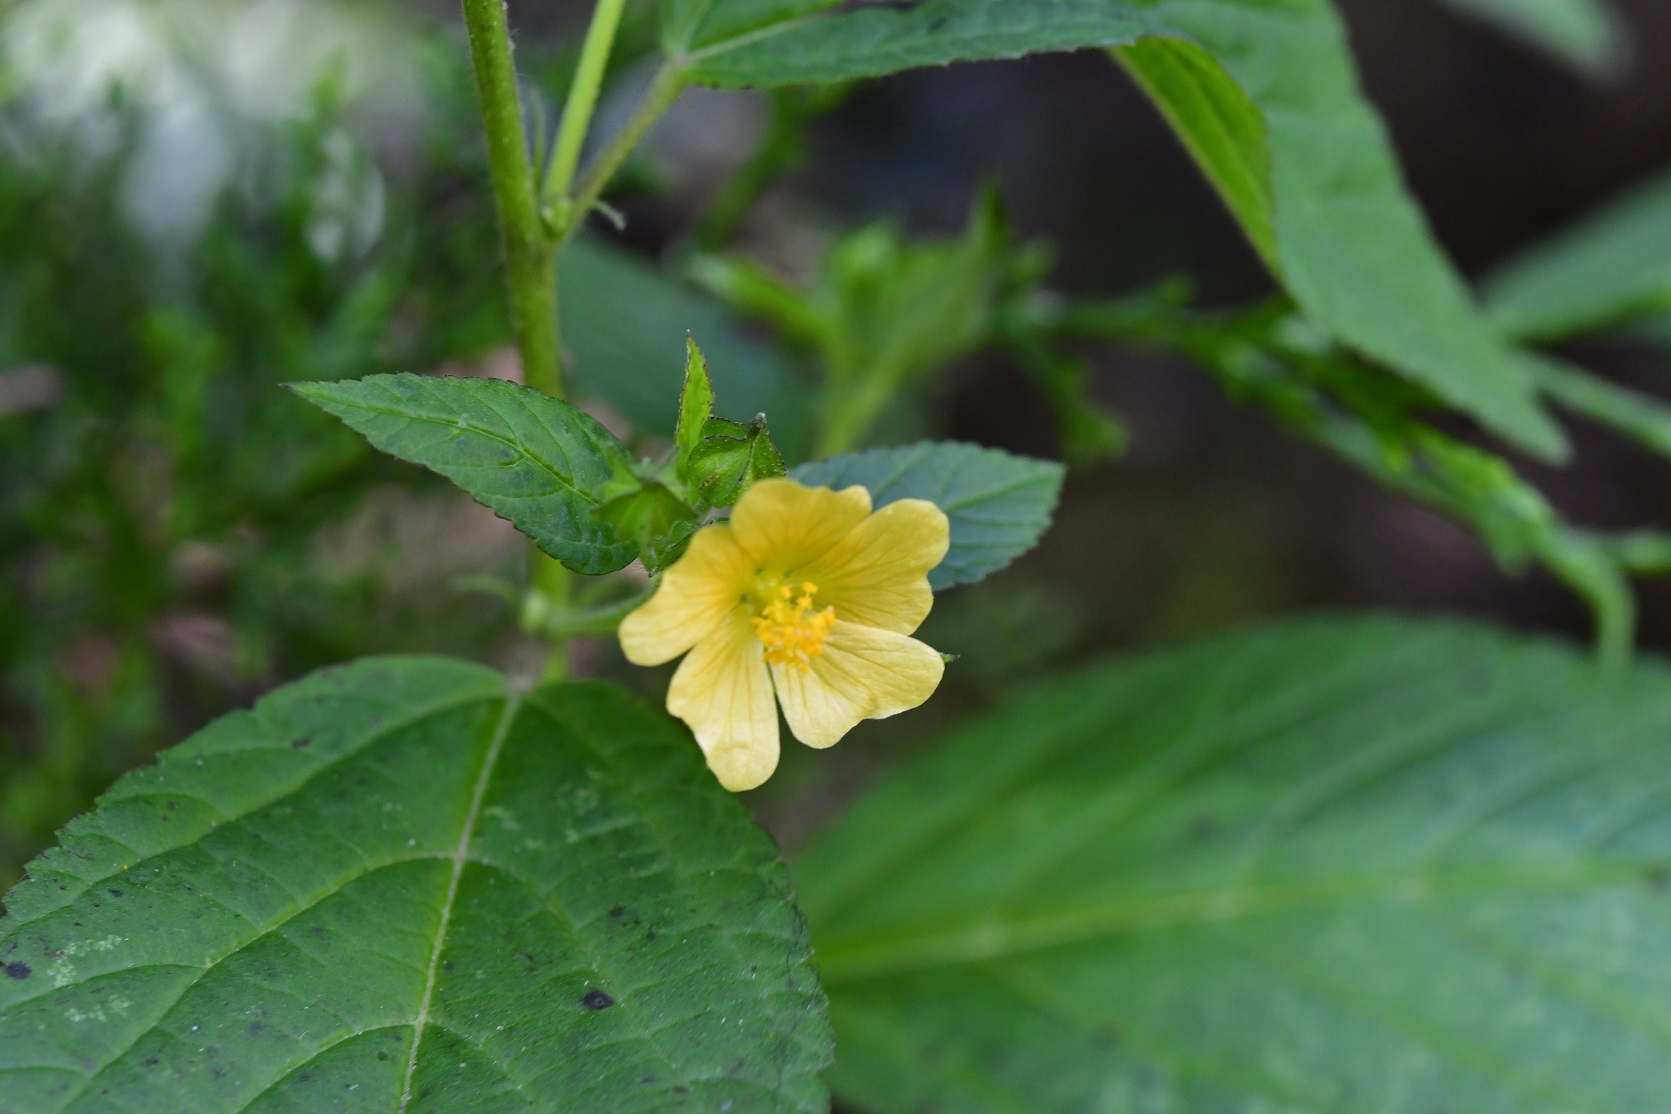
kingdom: Plantae
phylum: Tracheophyta
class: Magnoliopsida
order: Malvales
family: Malvaceae
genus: Sida
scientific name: Sida acuta
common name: Common wireweed
